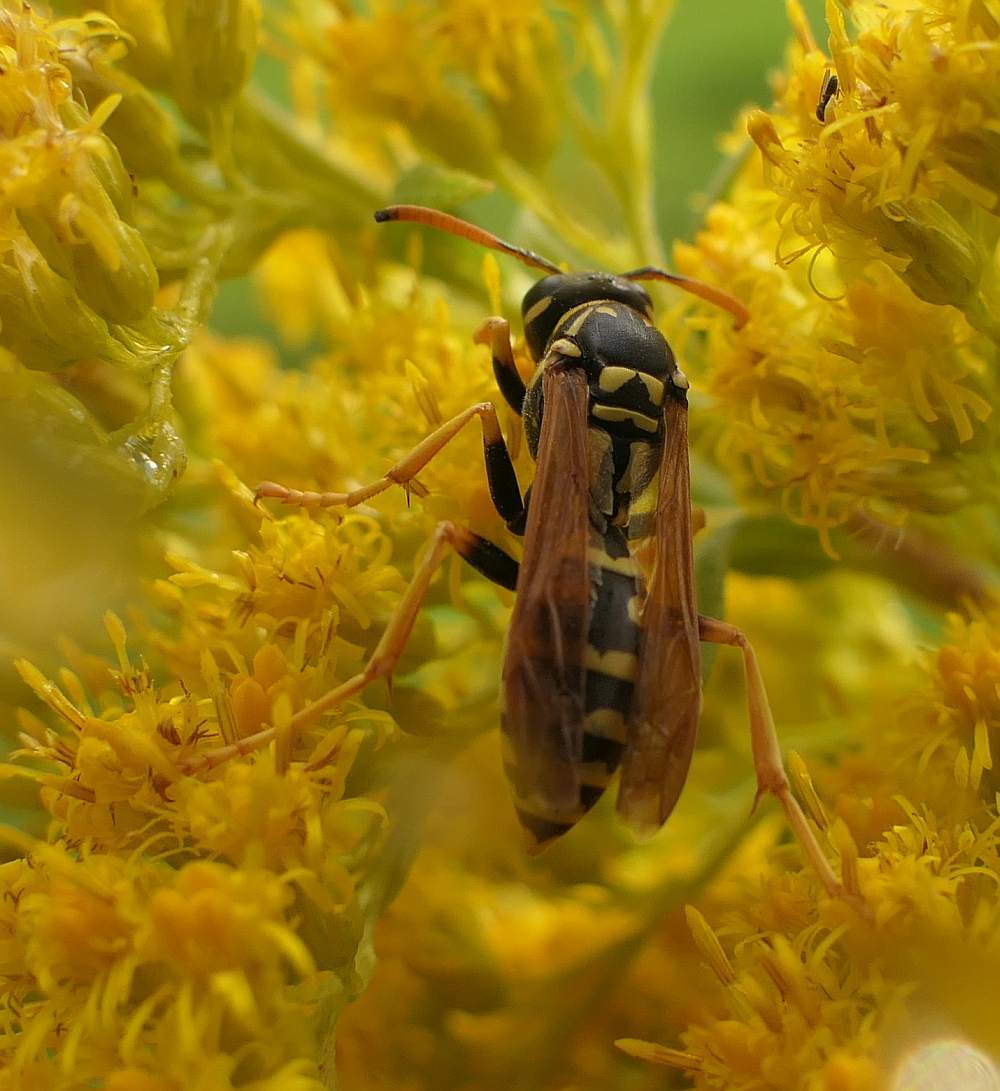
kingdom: Animalia
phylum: Arthropoda
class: Insecta
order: Hymenoptera
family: Eumenidae
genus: Polistes
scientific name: Polistes dominula
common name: Paper wasp
